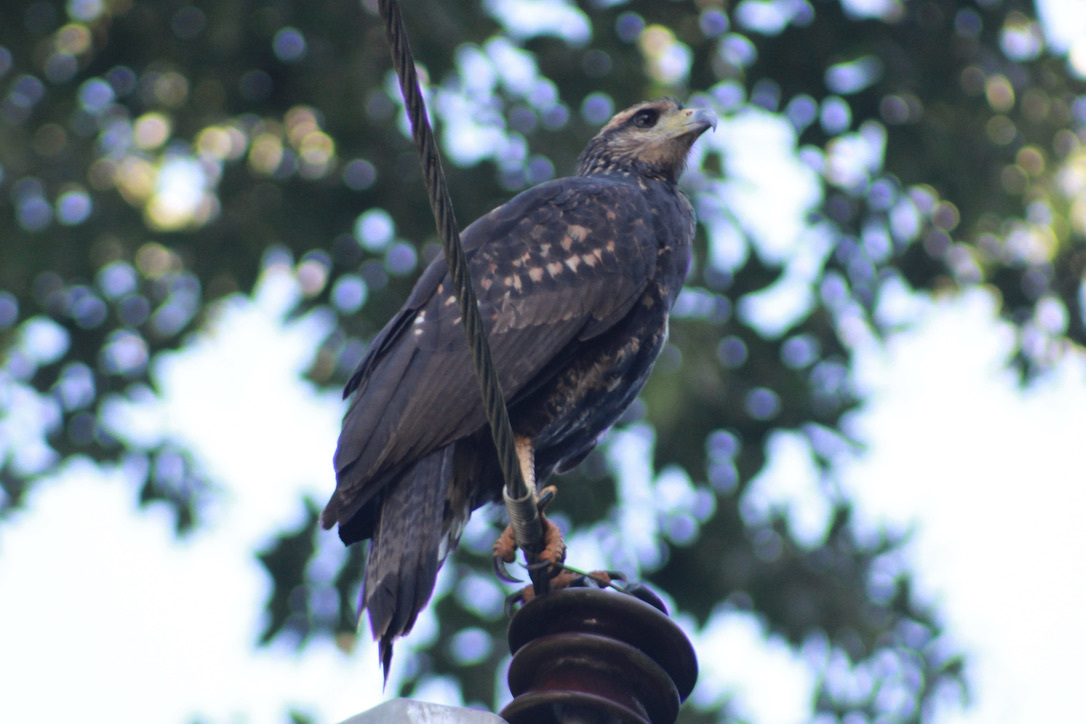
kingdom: Animalia
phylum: Chordata
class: Aves
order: Accipitriformes
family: Accipitridae
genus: Buteogallus
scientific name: Buteogallus urubitinga
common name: Great black hawk
